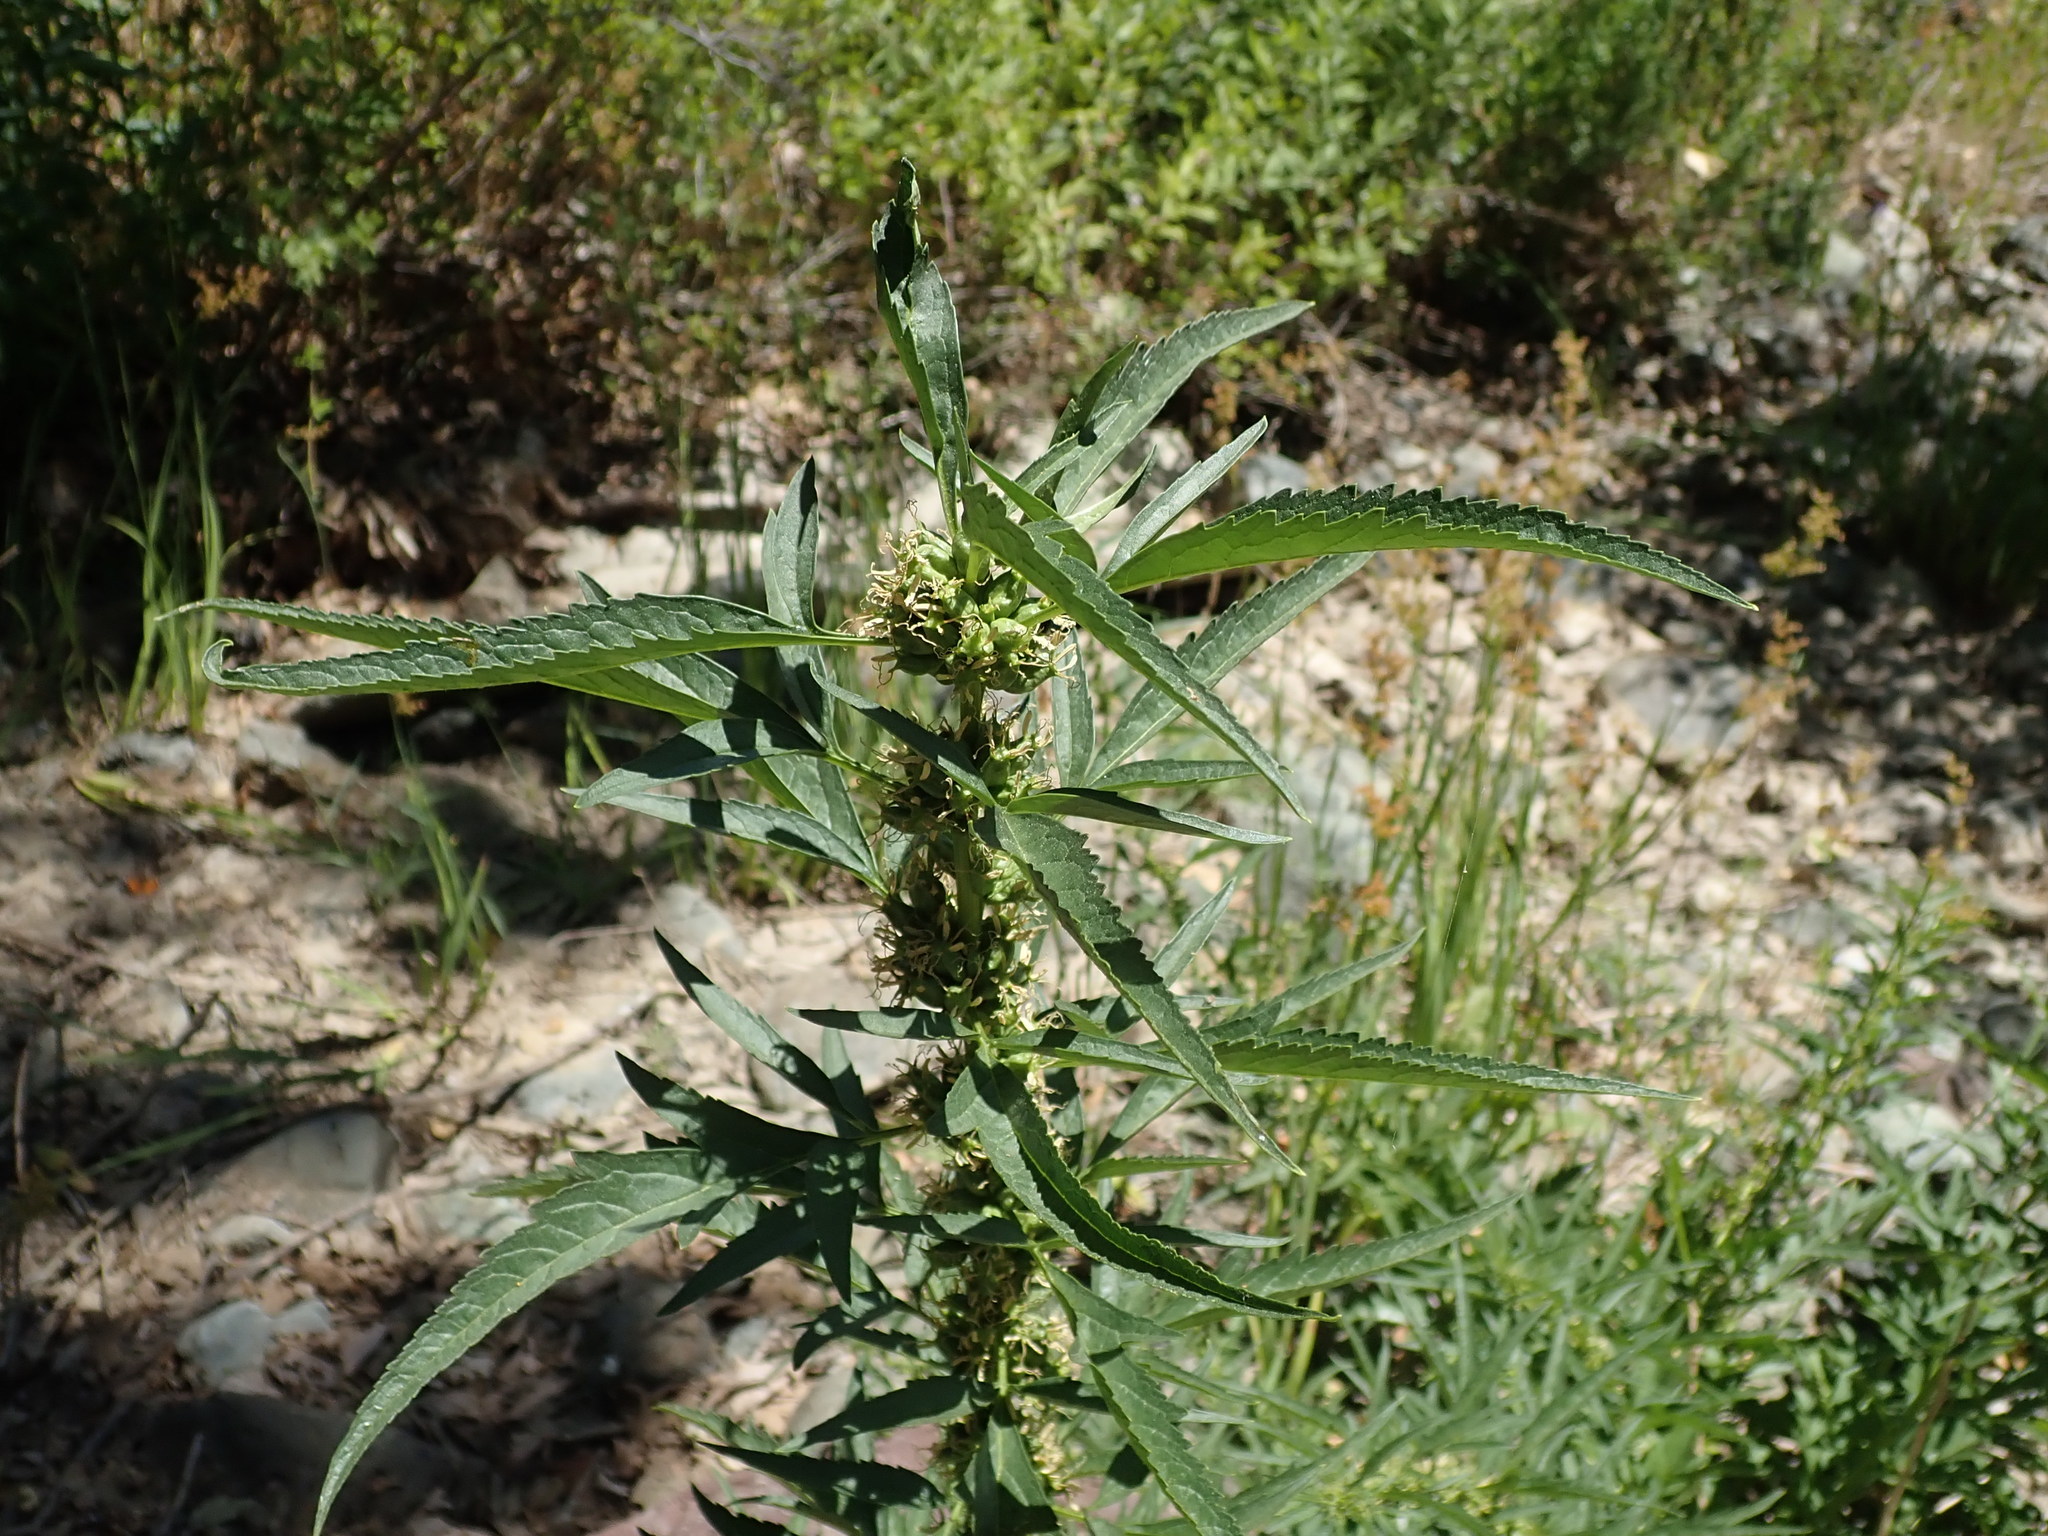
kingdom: Plantae
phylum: Tracheophyta
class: Magnoliopsida
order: Cucurbitales
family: Datiscaceae
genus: Datisca
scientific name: Datisca glomerata
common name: Durango-root
